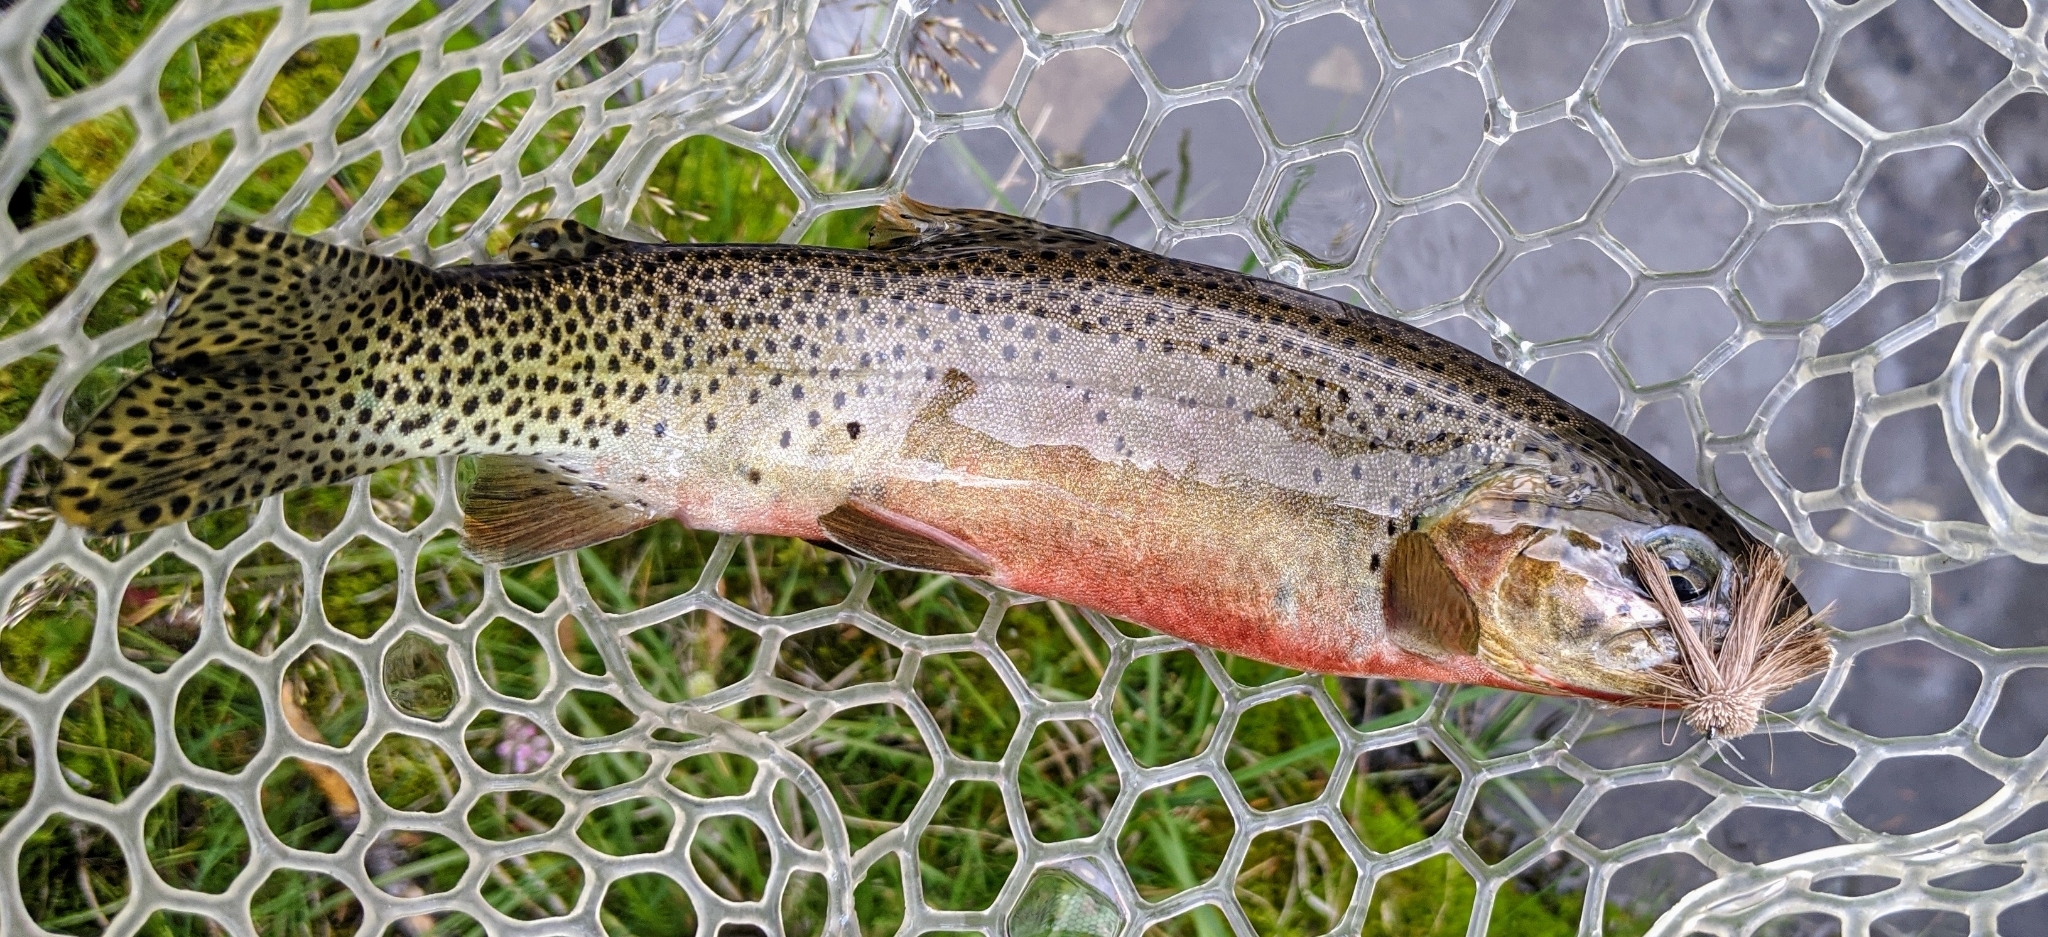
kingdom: Animalia
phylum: Chordata
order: Salmoniformes
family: Salmonidae
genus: Oncorhynchus
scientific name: Oncorhynchus
